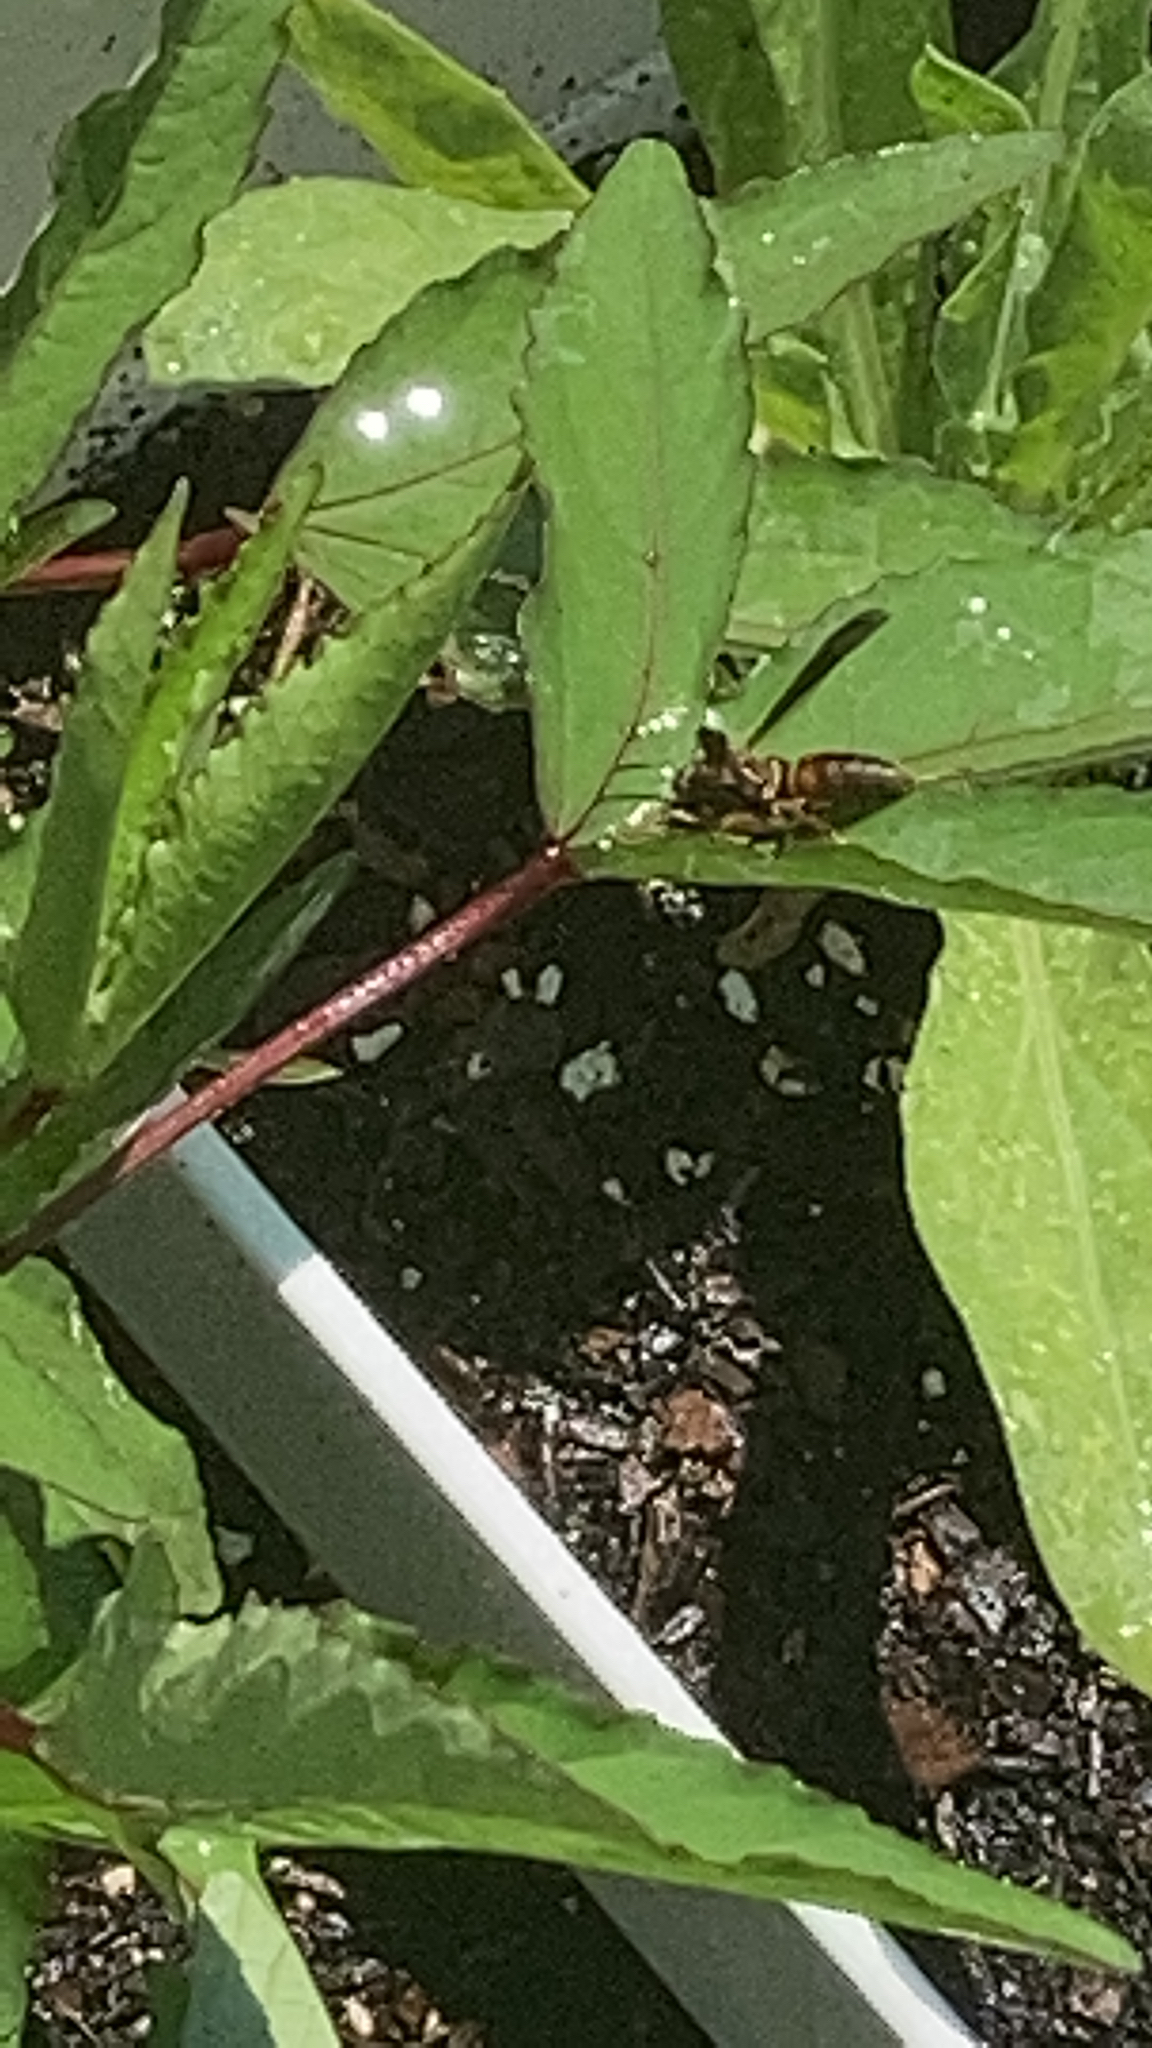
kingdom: Animalia
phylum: Arthropoda
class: Insecta
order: Hymenoptera
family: Vespidae
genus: Fuscopolistes
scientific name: Fuscopolistes
